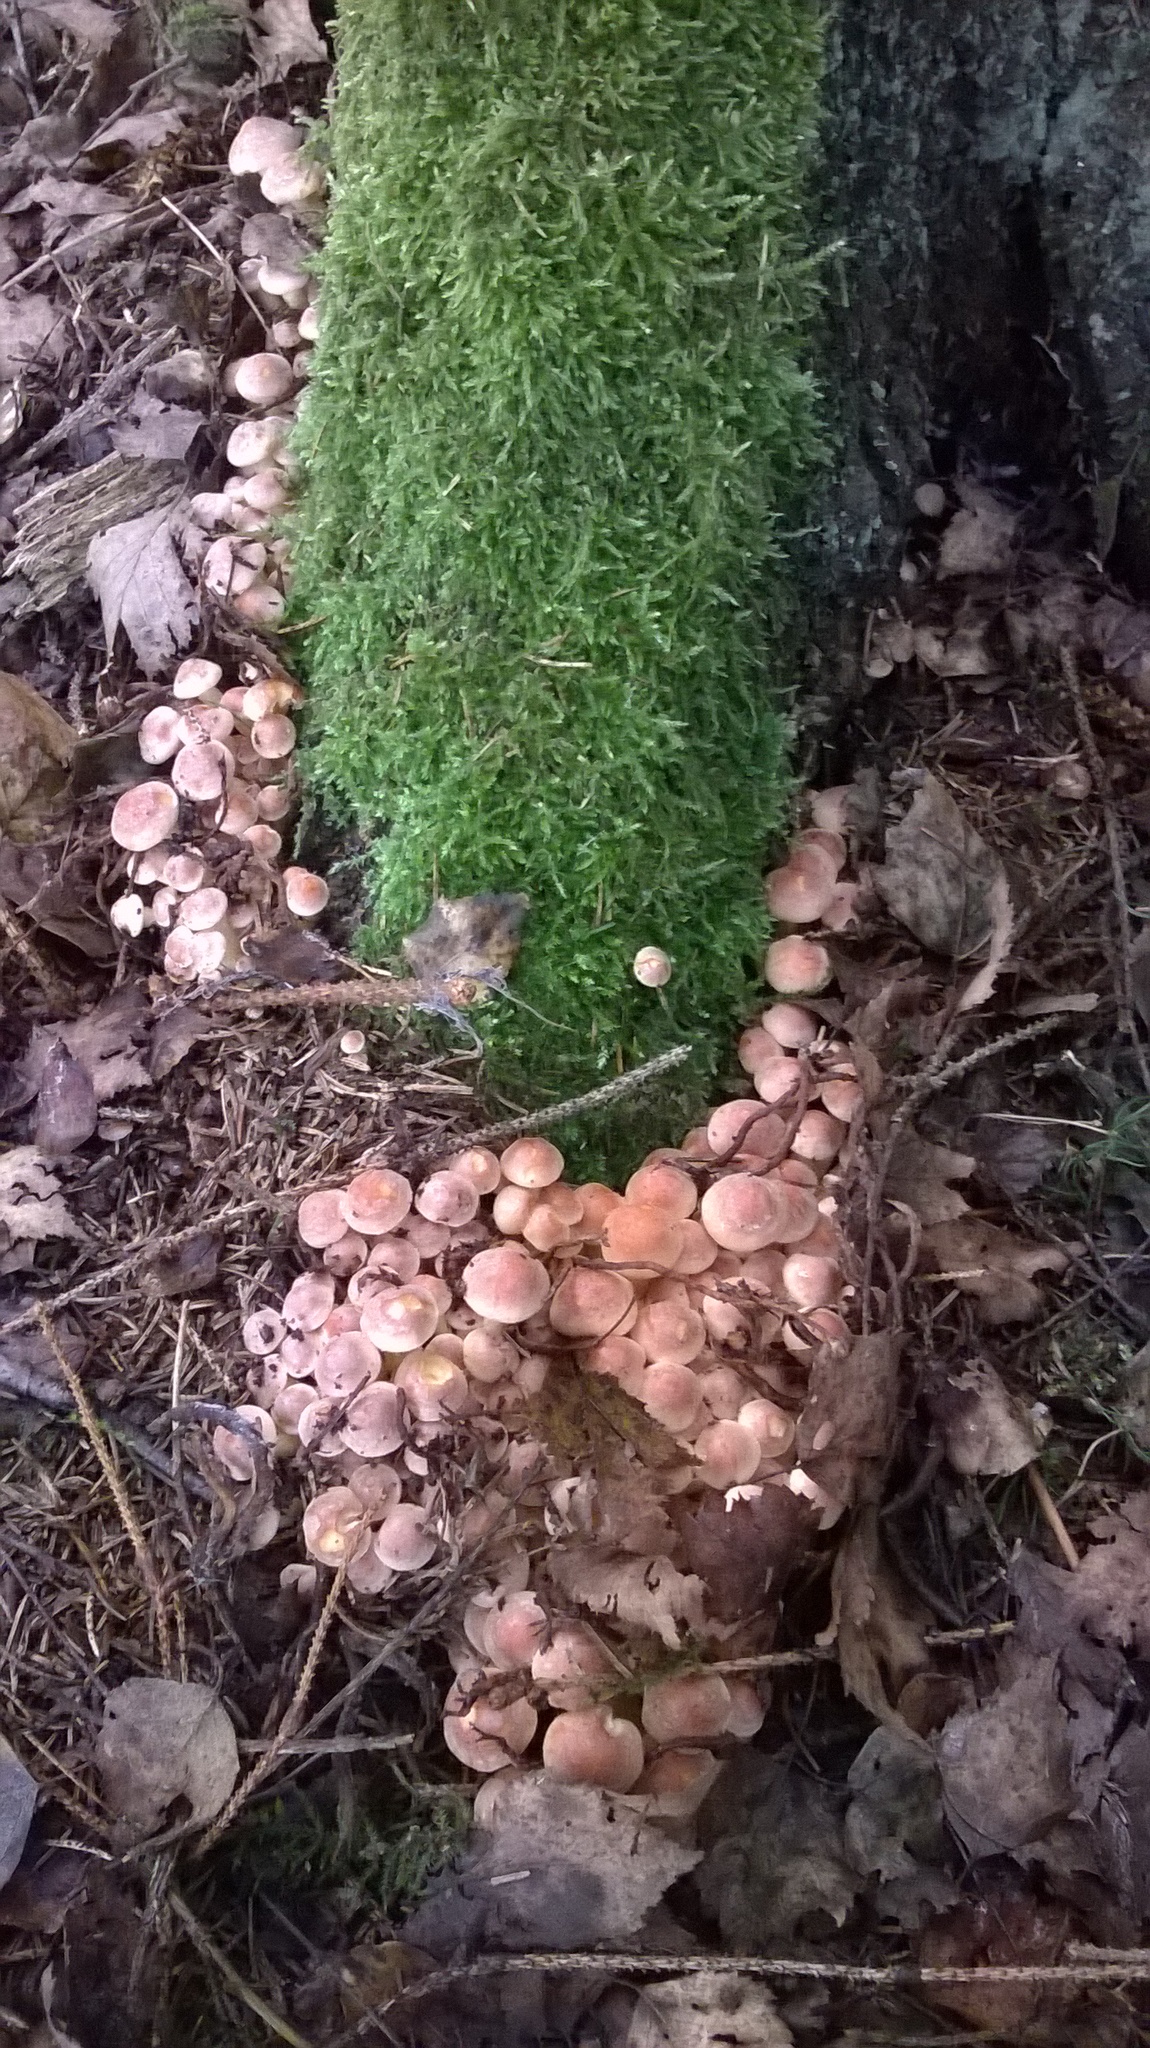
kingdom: Fungi
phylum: Basidiomycota
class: Agaricomycetes
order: Agaricales
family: Strophariaceae
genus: Hypholoma
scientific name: Hypholoma lateritium
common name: Brick caps
